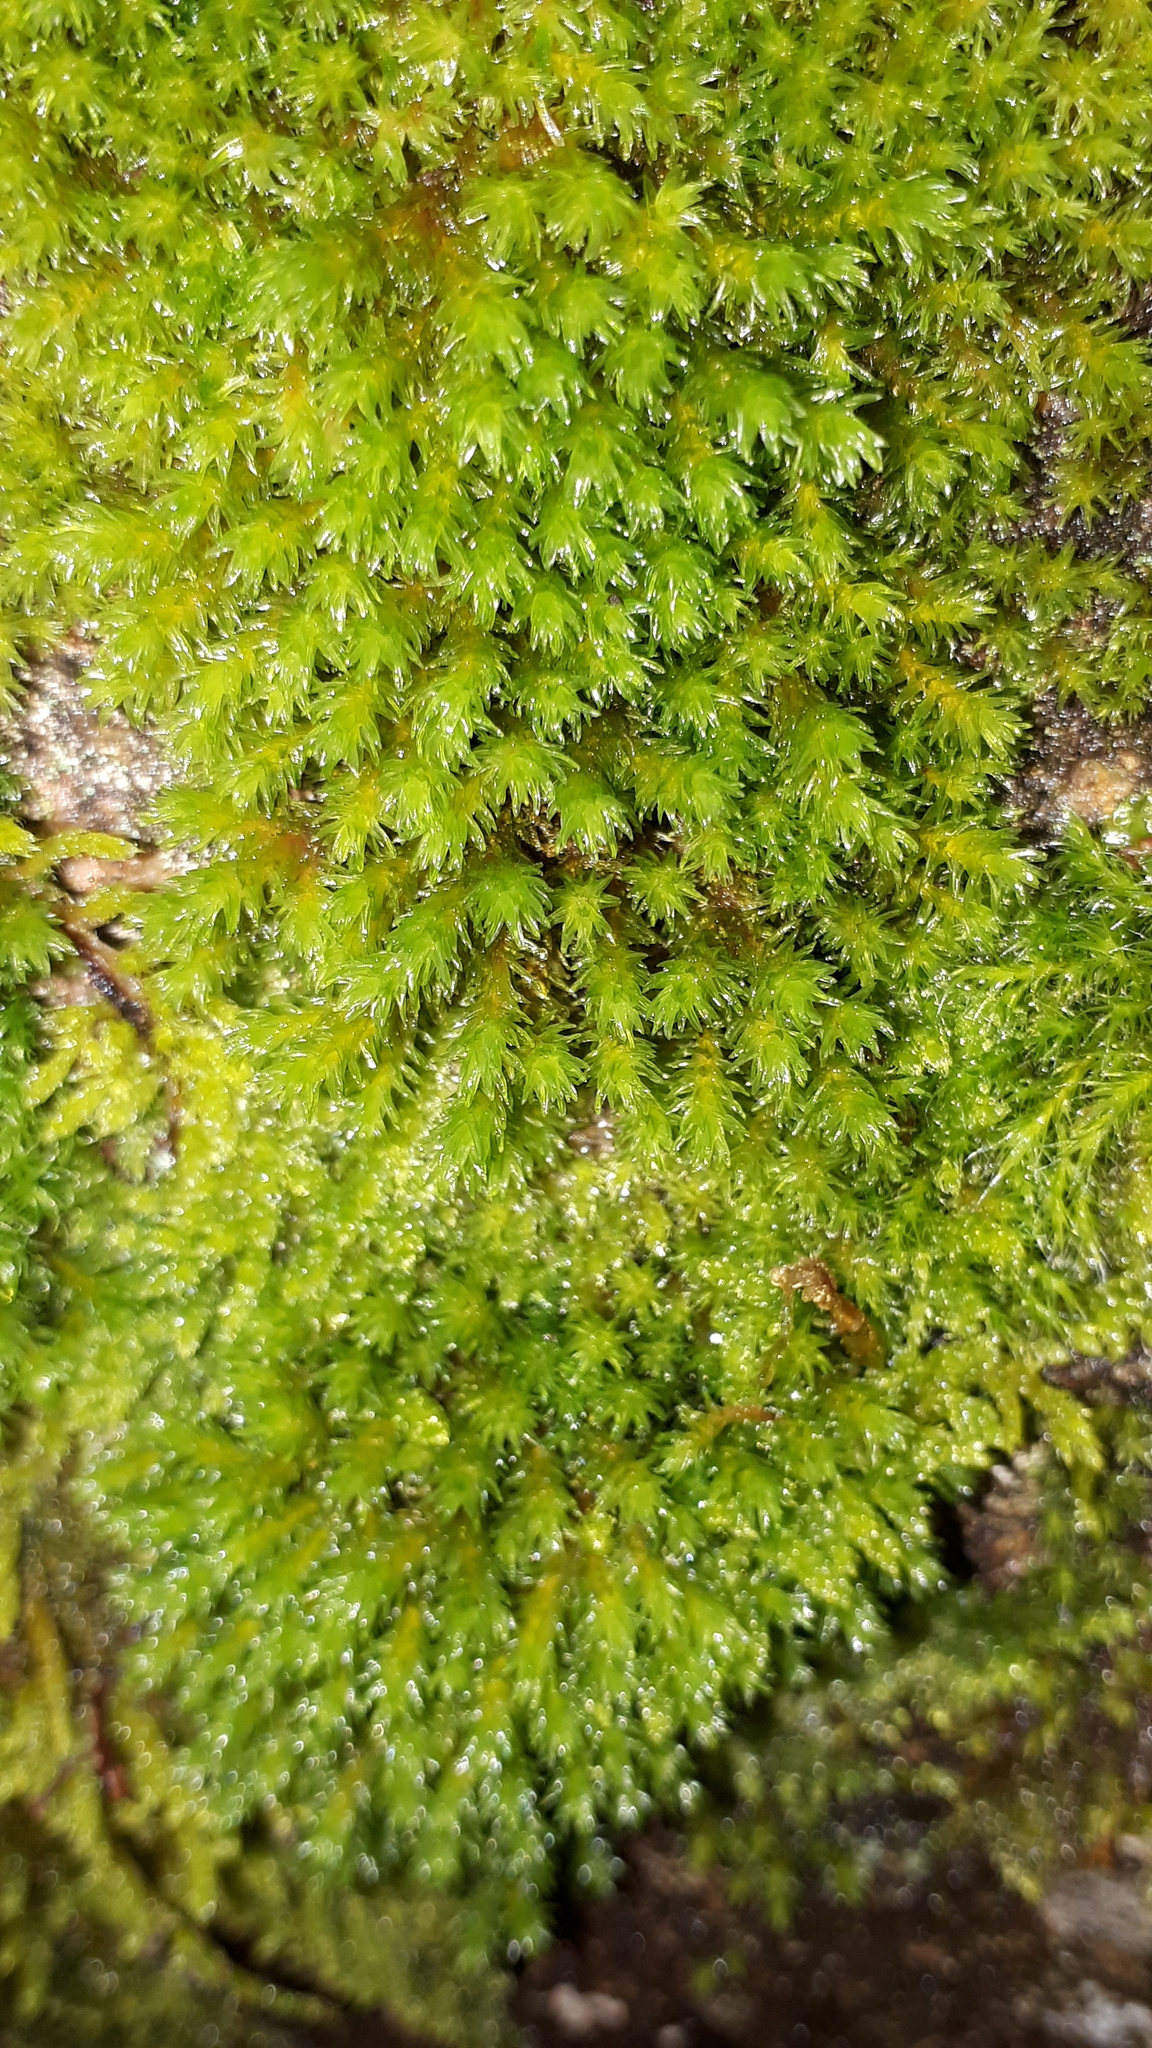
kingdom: Plantae
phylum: Bryophyta
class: Bryopsida
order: Grimmiales
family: Grimmiaceae
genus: Codriophorus
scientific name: Codriophorus aquaticus
